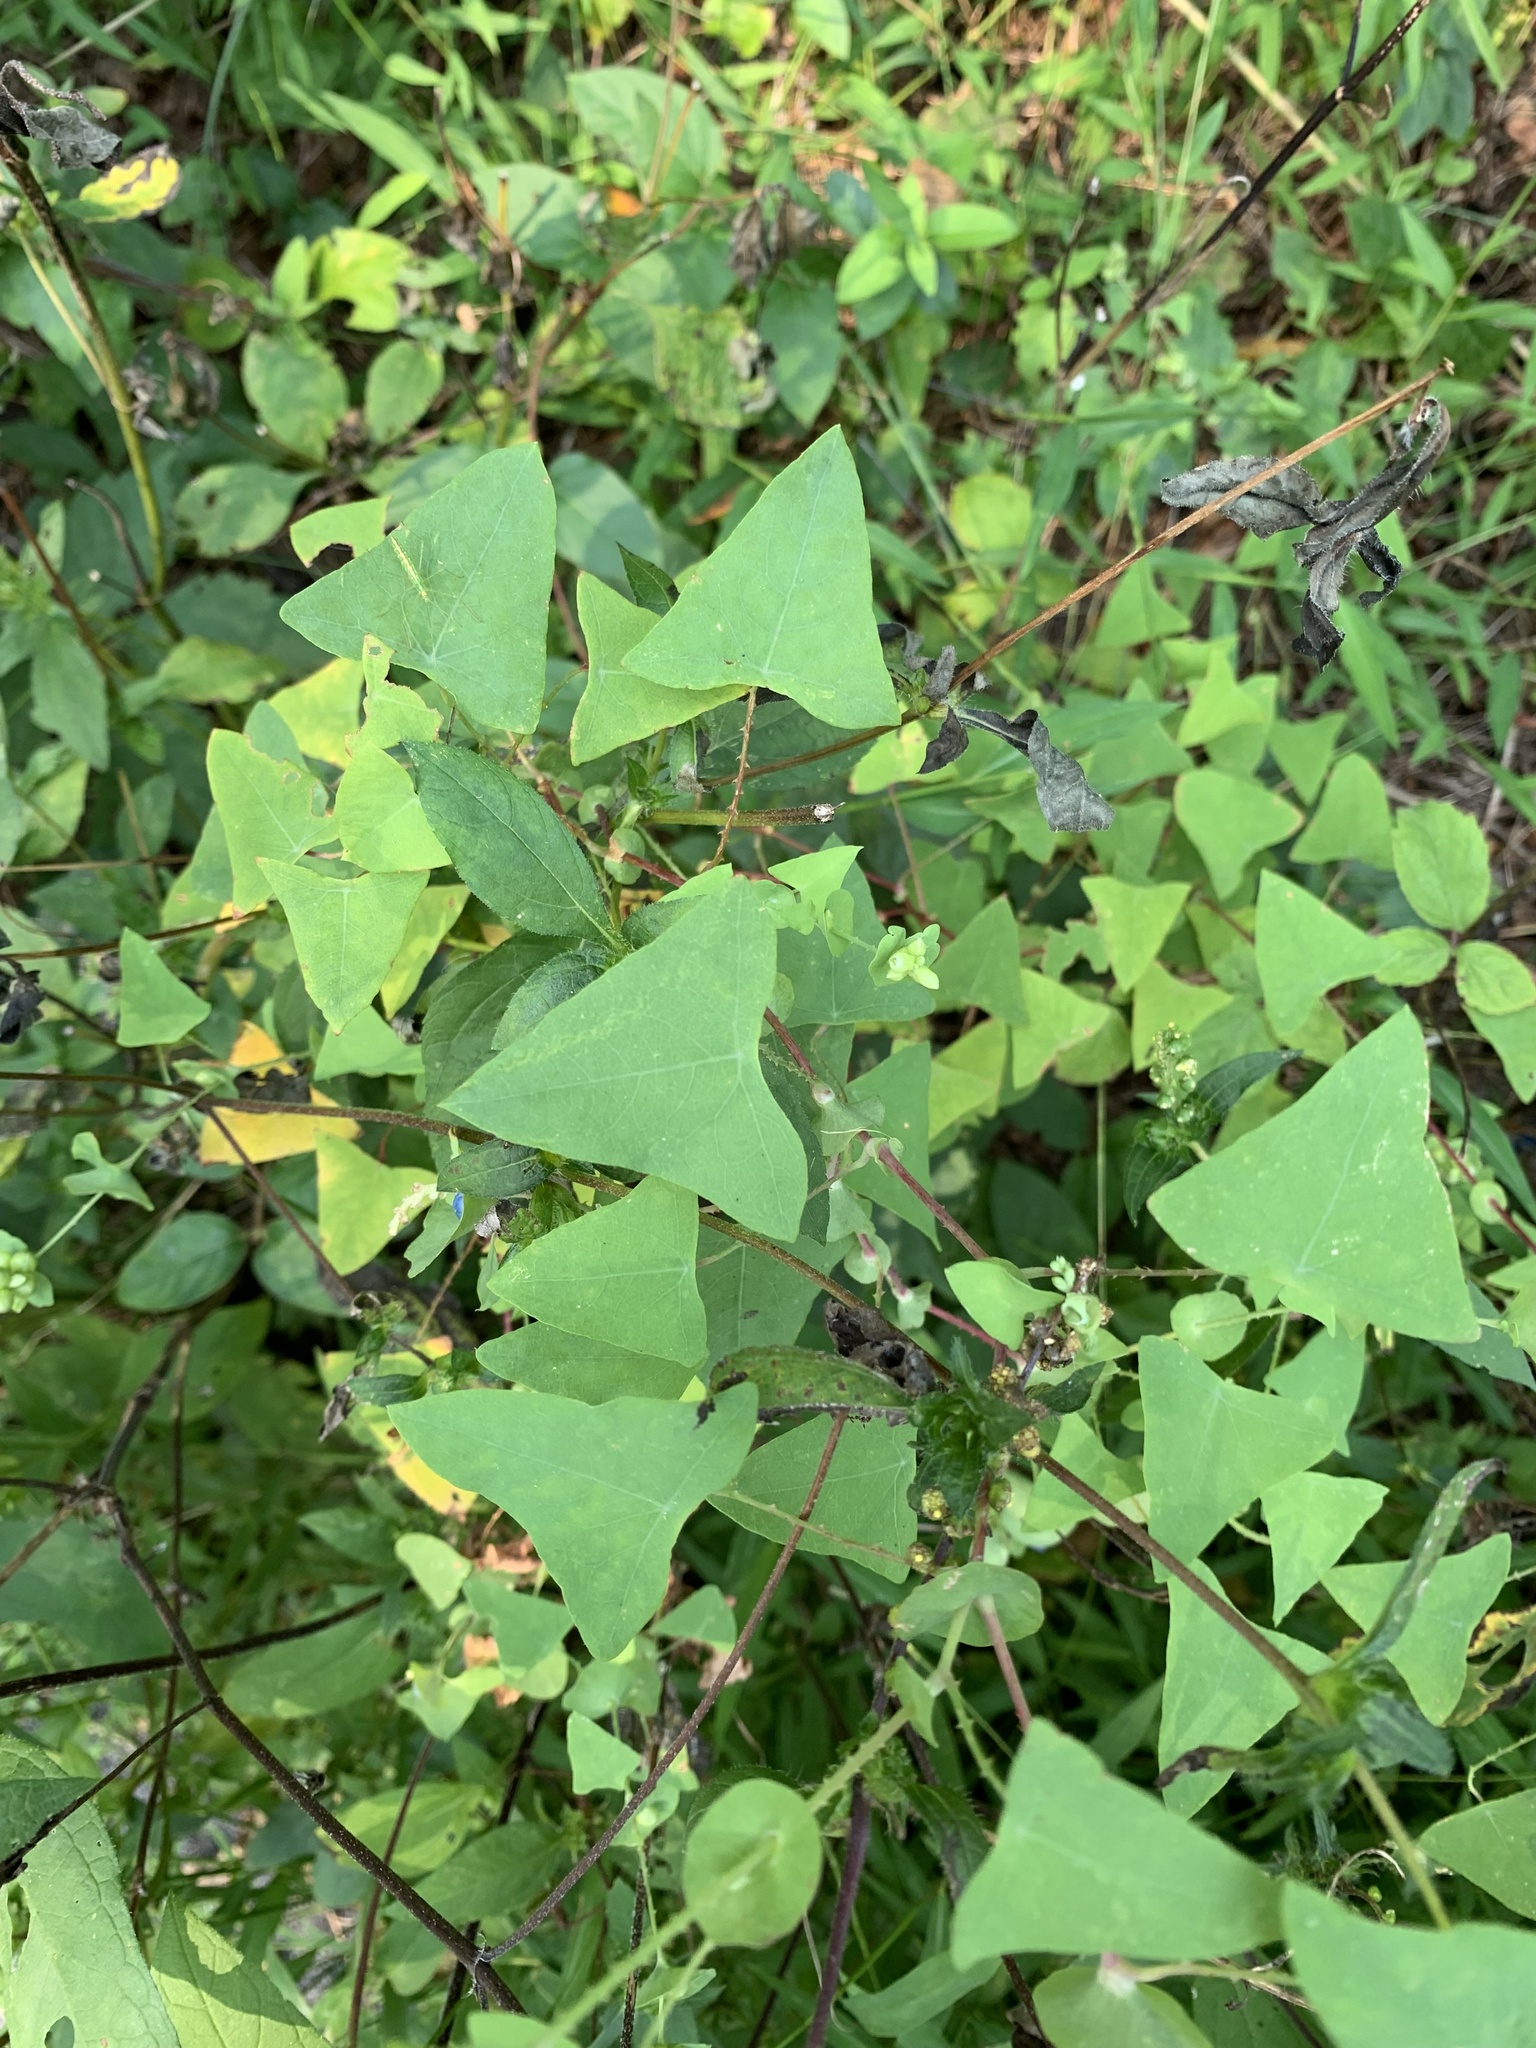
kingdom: Plantae
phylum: Tracheophyta
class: Magnoliopsida
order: Caryophyllales
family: Polygonaceae
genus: Persicaria
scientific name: Persicaria perfoliata
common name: Asiatic tearthumb
